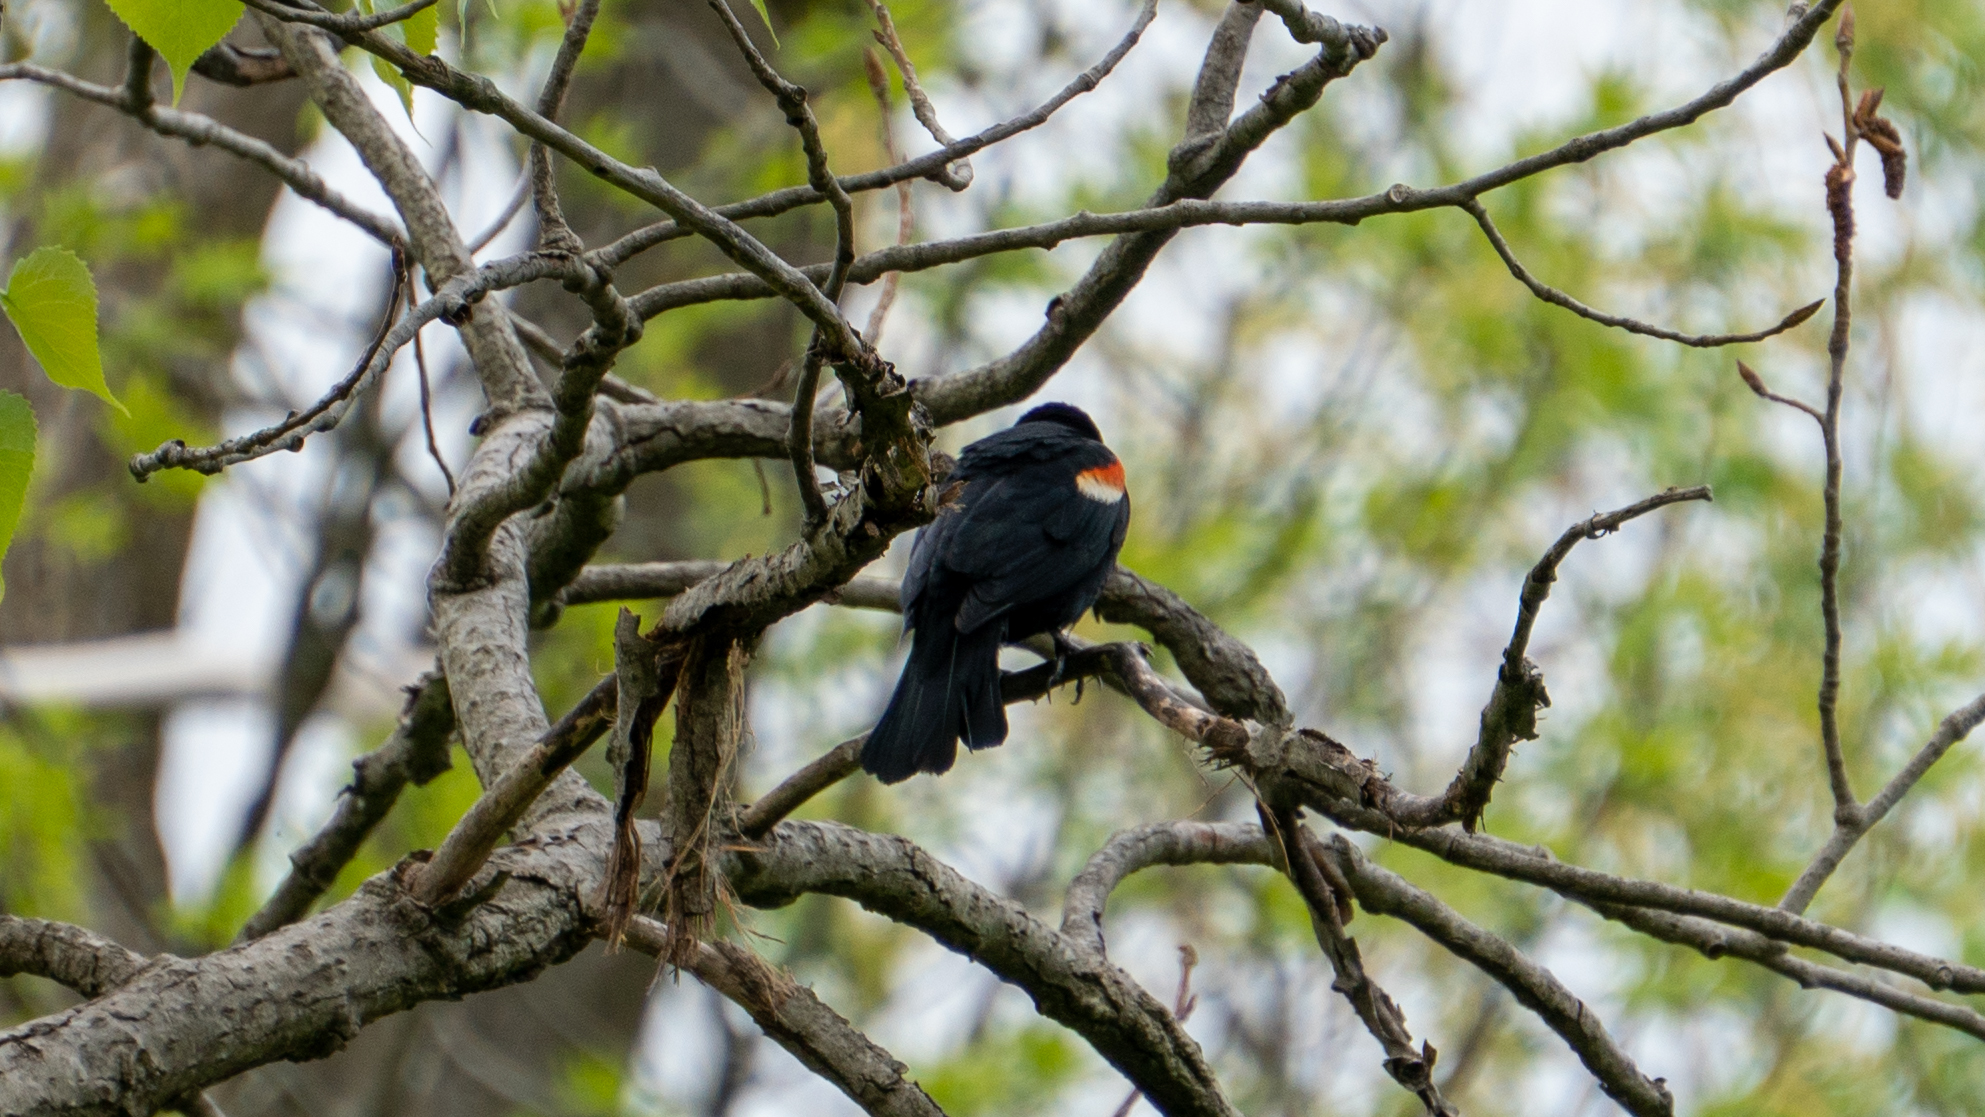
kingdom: Animalia
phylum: Chordata
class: Aves
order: Passeriformes
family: Icteridae
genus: Agelaius
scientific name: Agelaius phoeniceus
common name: Red-winged blackbird
